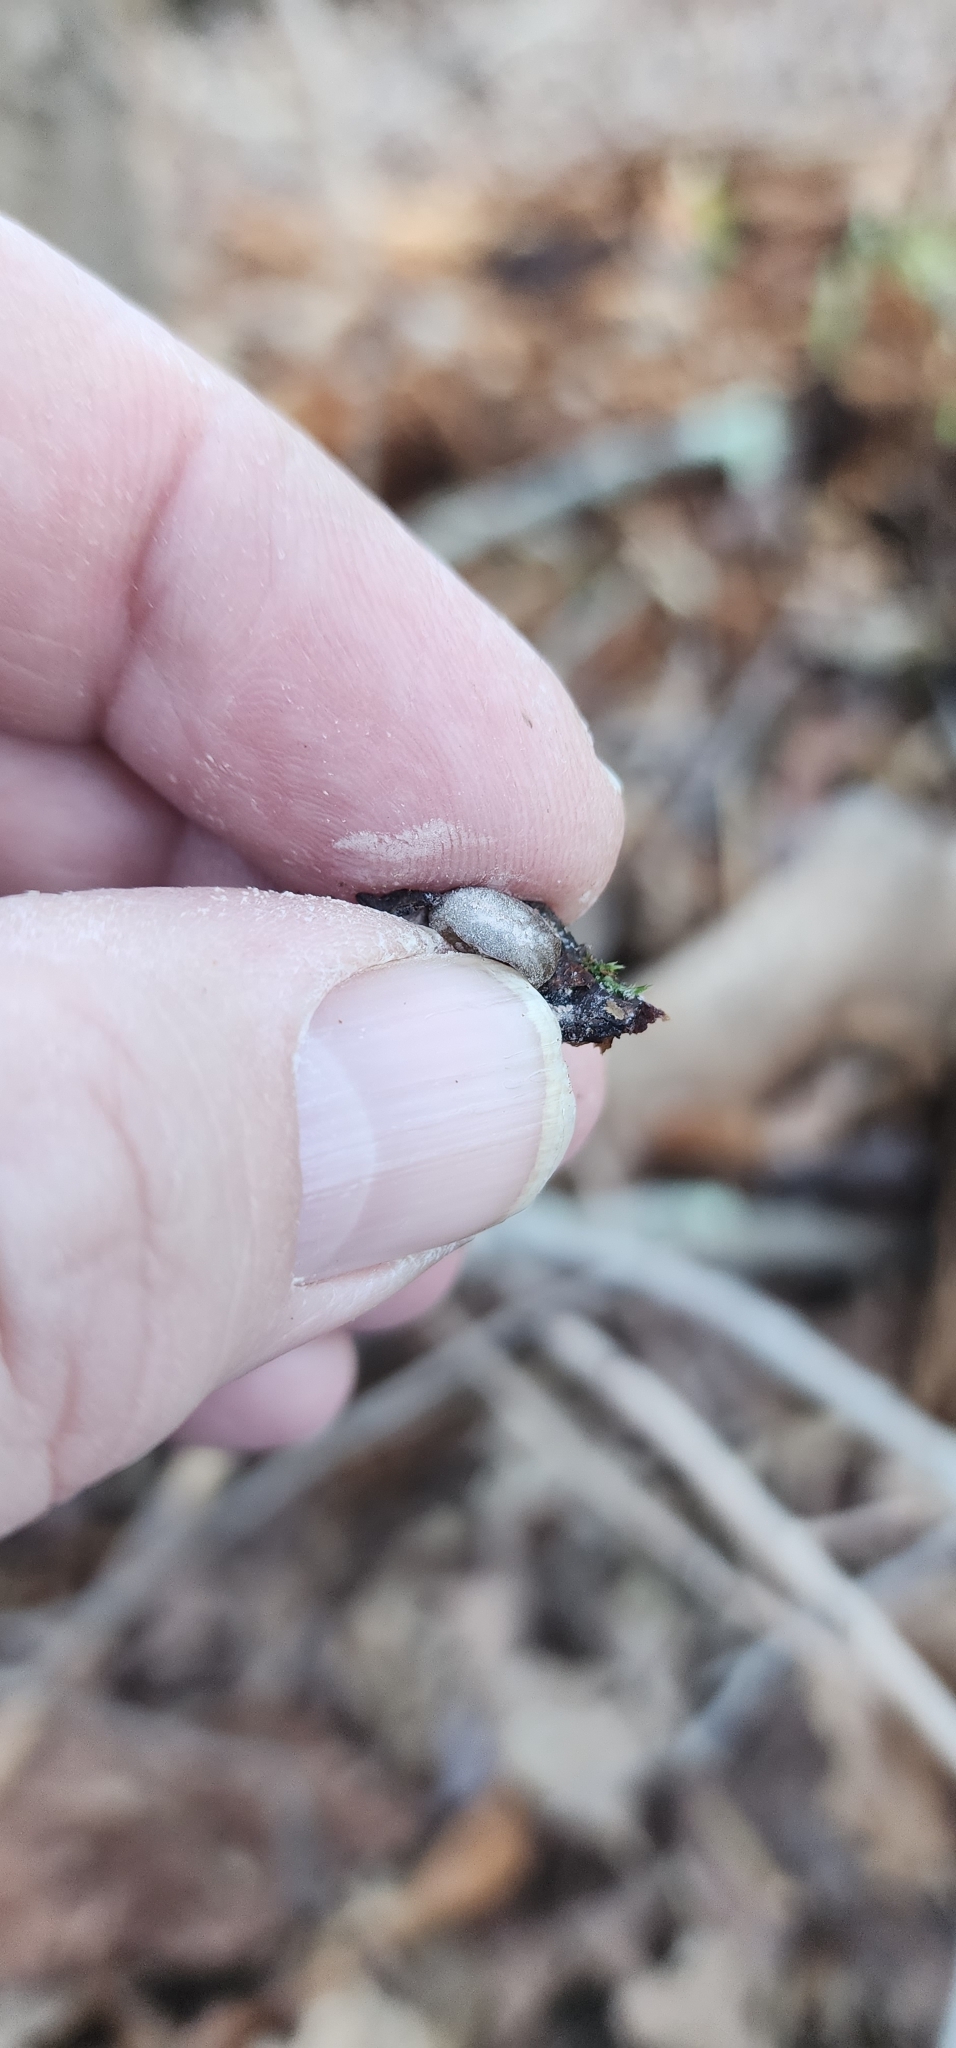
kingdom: Protozoa
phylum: Mycetozoa
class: Myxomycetes
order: Cribrariales
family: Tubiferaceae
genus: Lycogala
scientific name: Lycogala epidendrum
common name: Wolf's milk
